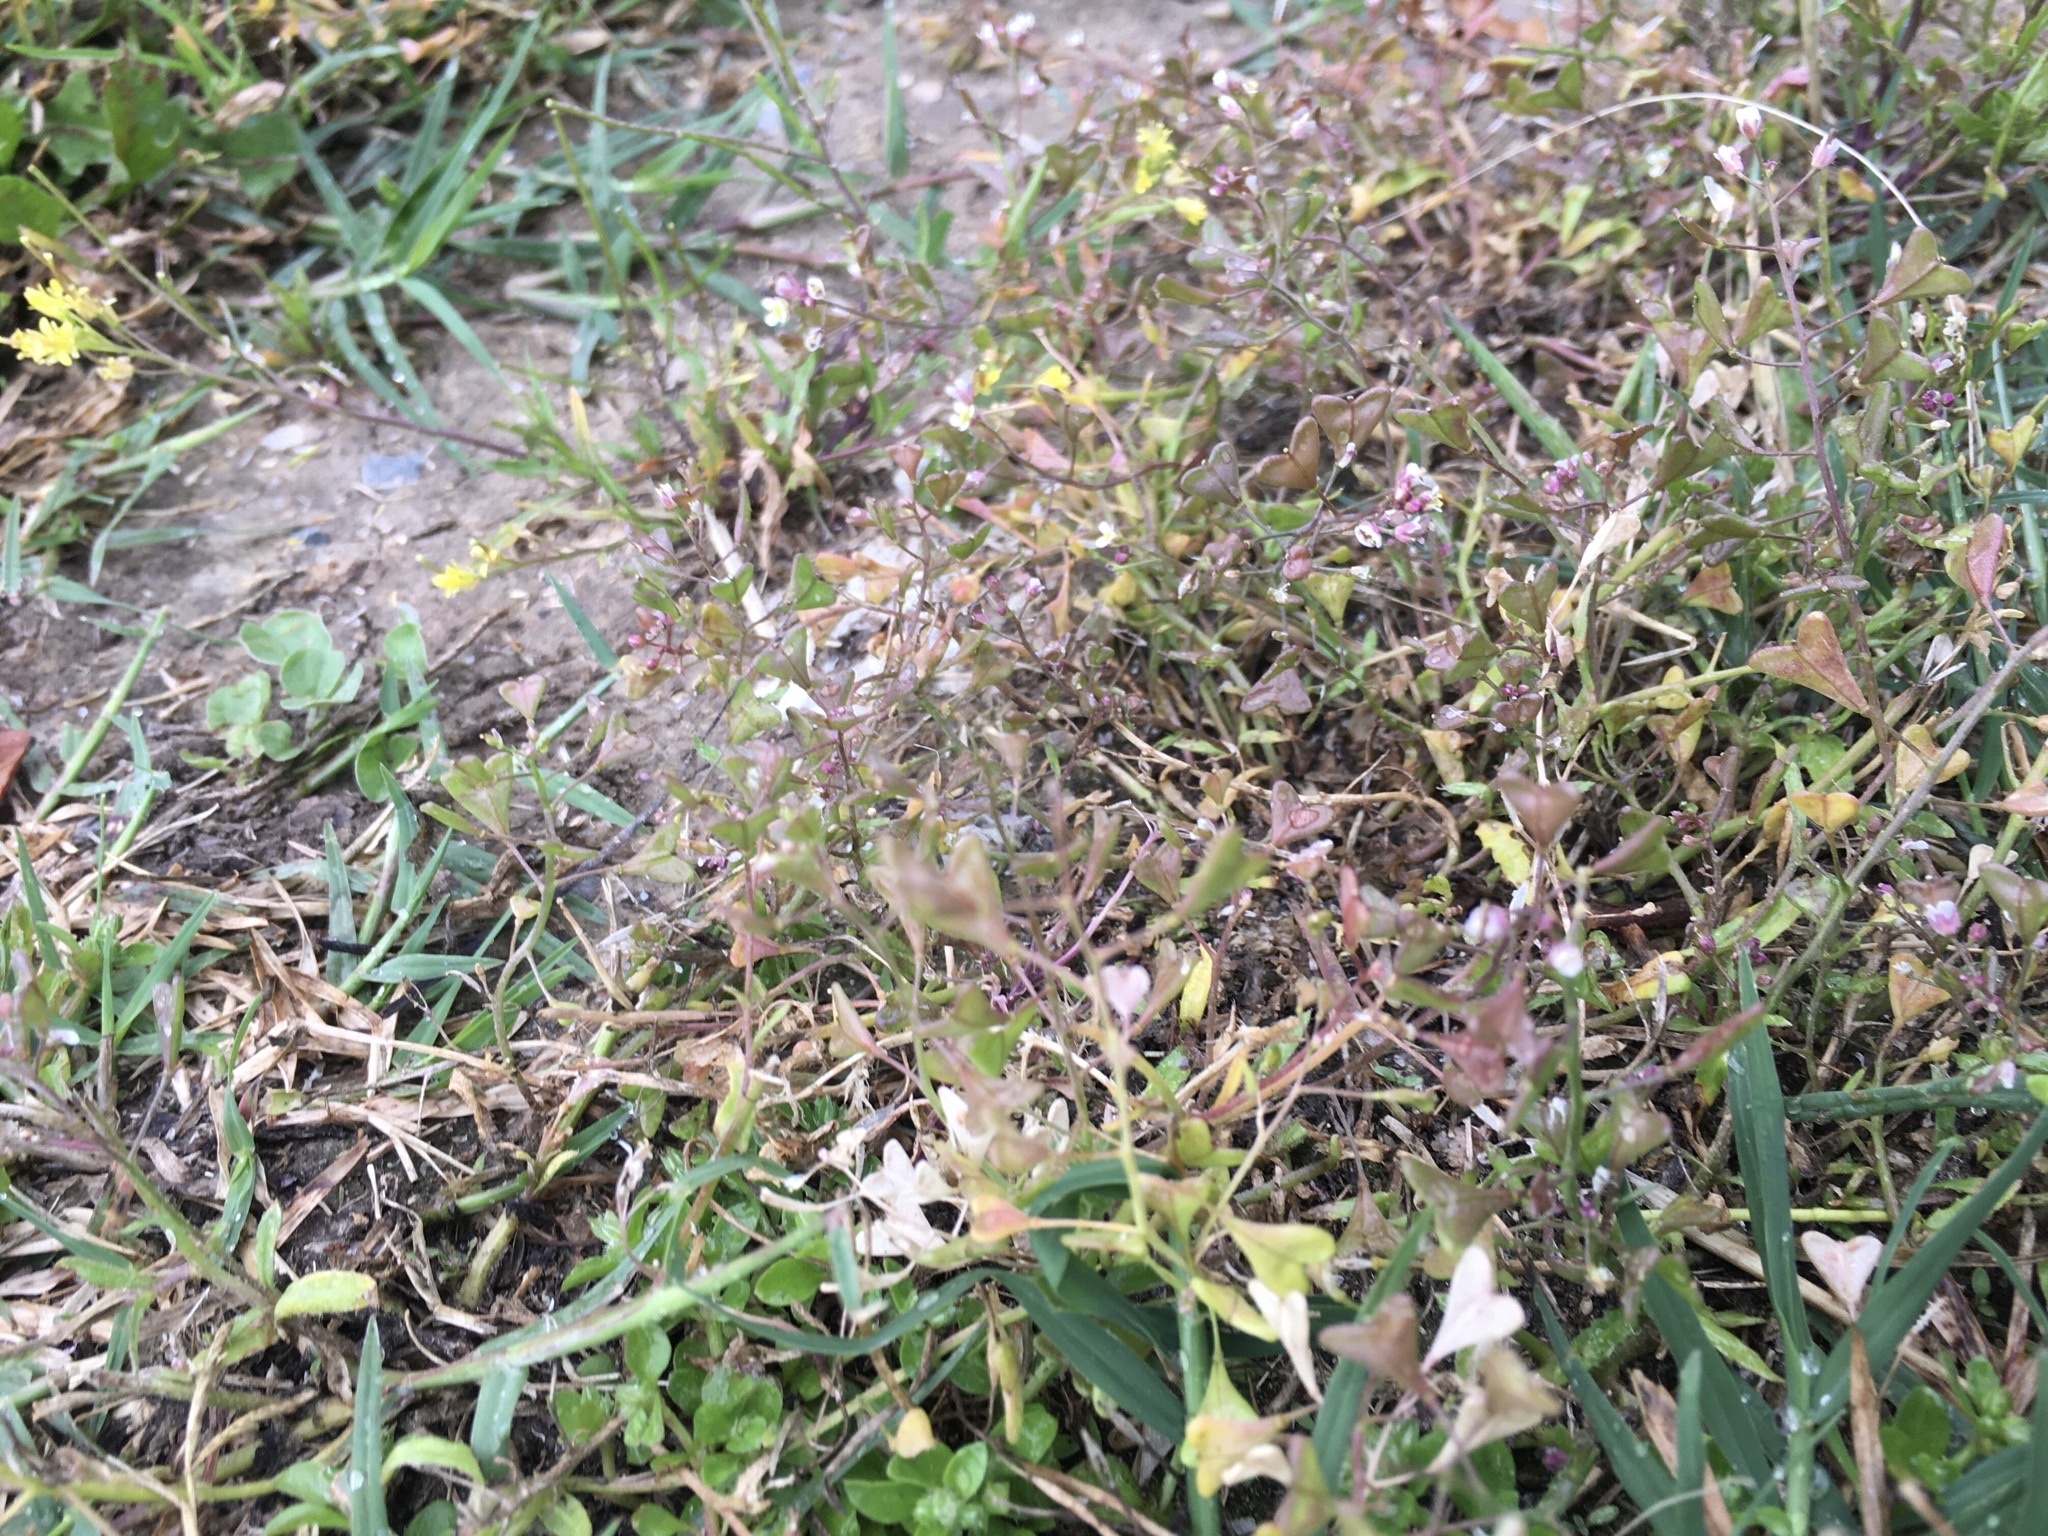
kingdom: Plantae
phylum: Tracheophyta
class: Magnoliopsida
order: Brassicales
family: Brassicaceae
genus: Capsella
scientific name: Capsella bursa-pastoris
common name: Shepherd's purse
